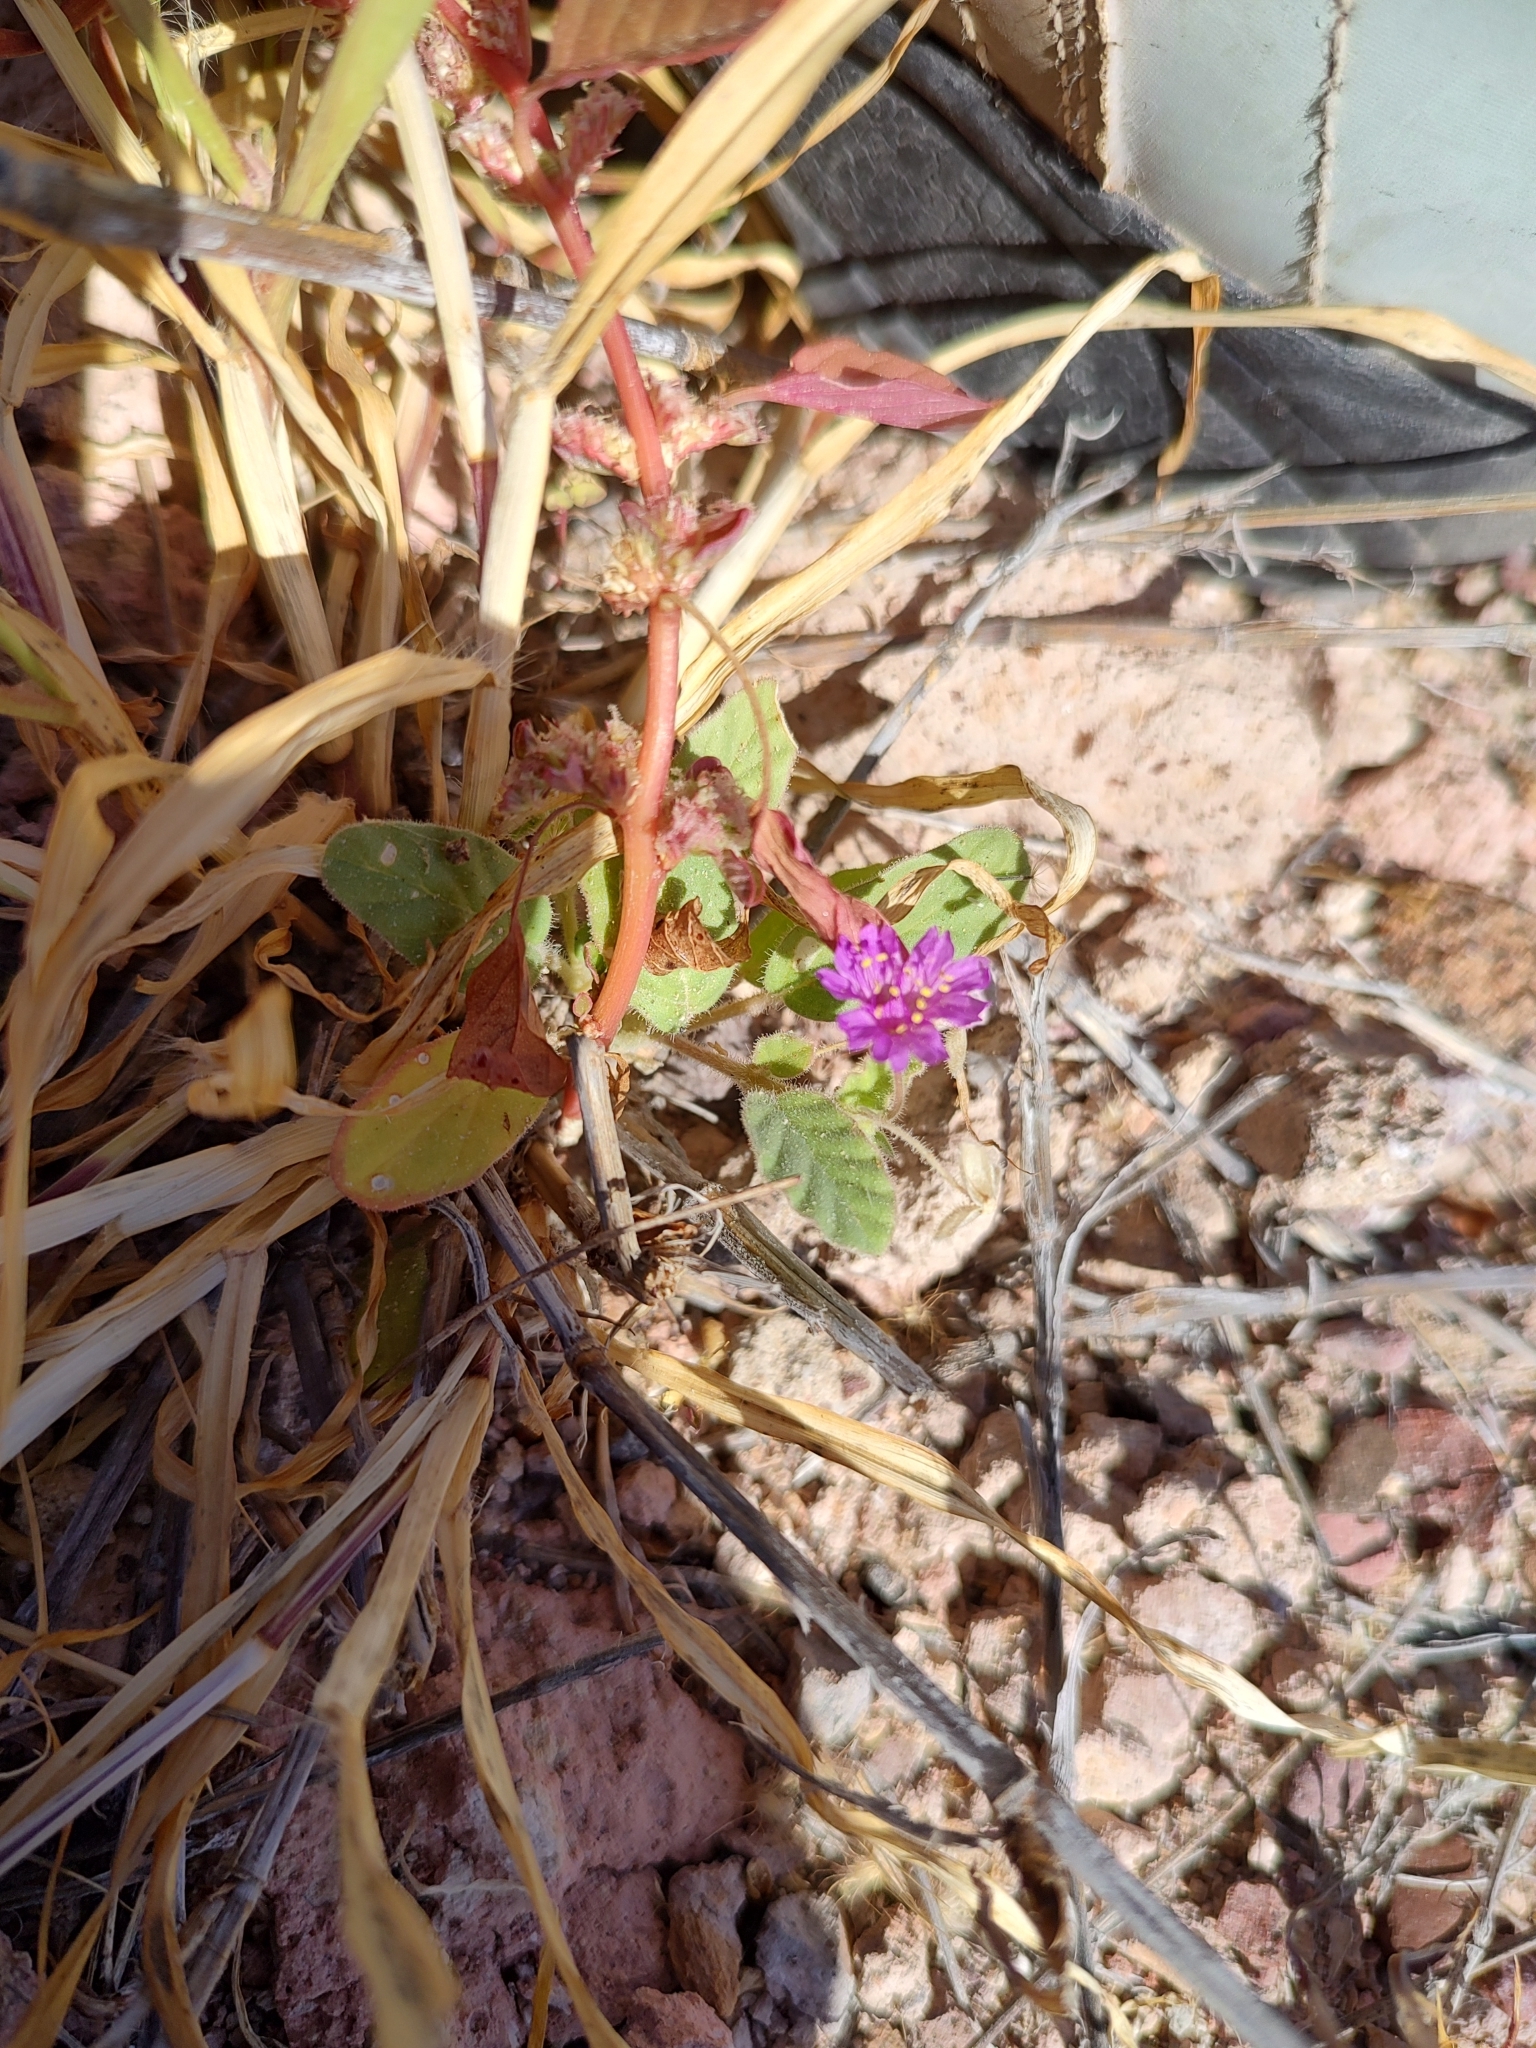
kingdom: Plantae
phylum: Tracheophyta
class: Magnoliopsida
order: Caryophyllales
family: Nyctaginaceae
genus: Allionia
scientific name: Allionia incarnata
